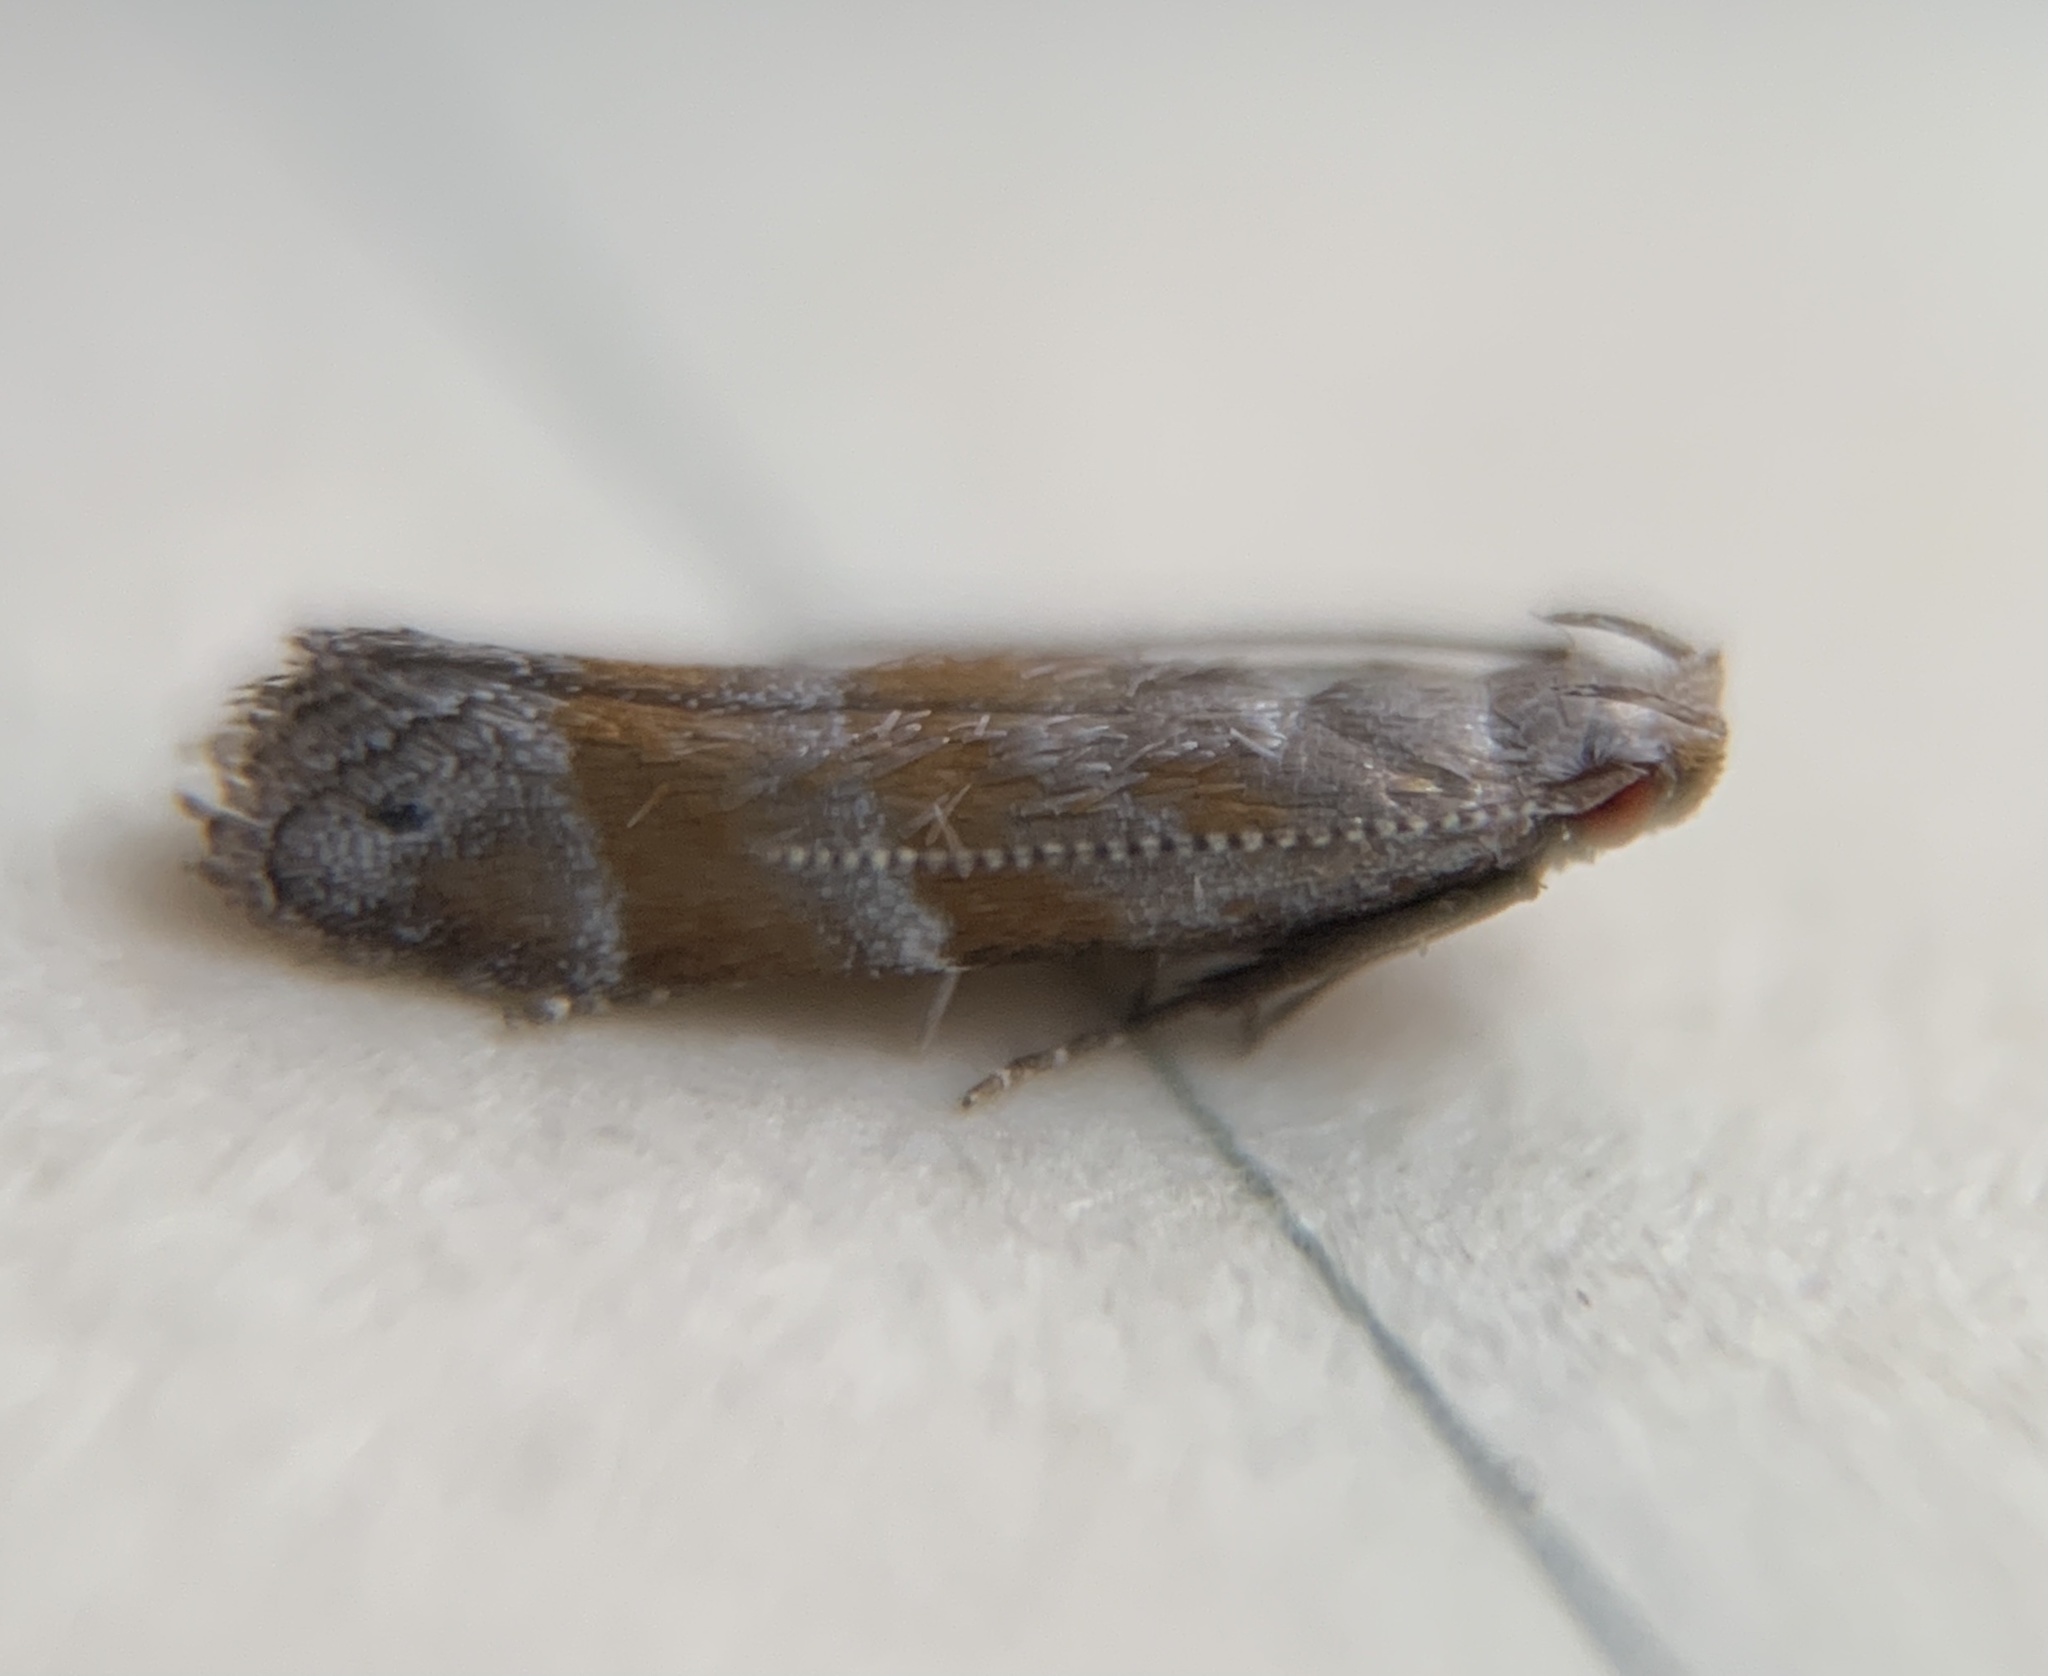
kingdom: Animalia
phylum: Arthropoda
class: Insecta
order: Lepidoptera
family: Gelechiidae
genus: Battaristis
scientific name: Battaristis vittella
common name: Orange stripe-backed moth
